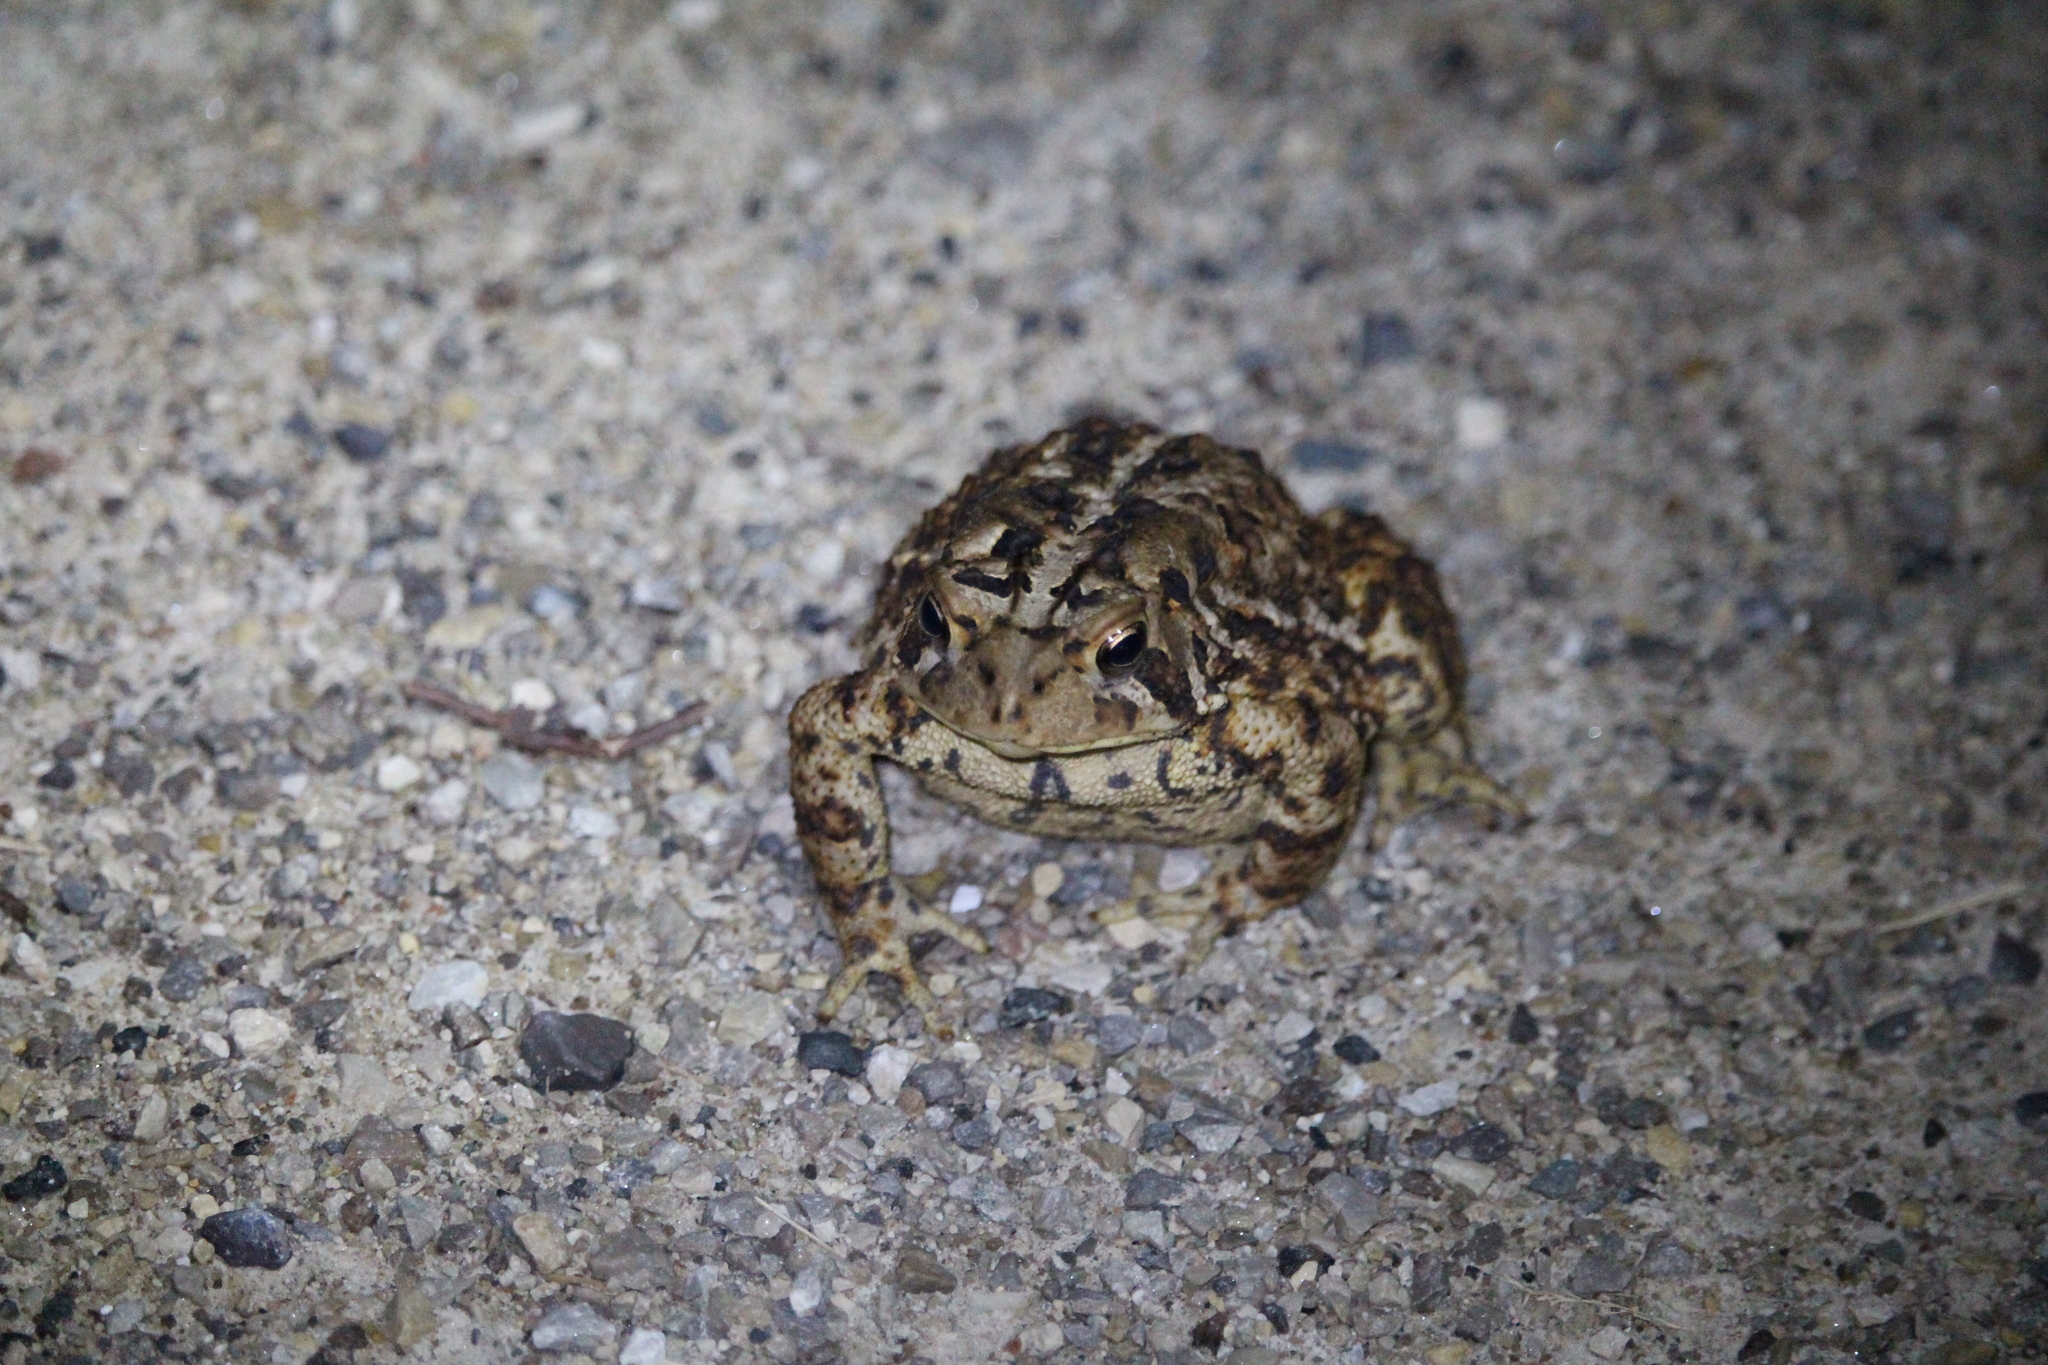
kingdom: Animalia
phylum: Chordata
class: Amphibia
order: Anura
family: Bufonidae
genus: Anaxyrus
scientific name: Anaxyrus americanus
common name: American toad
